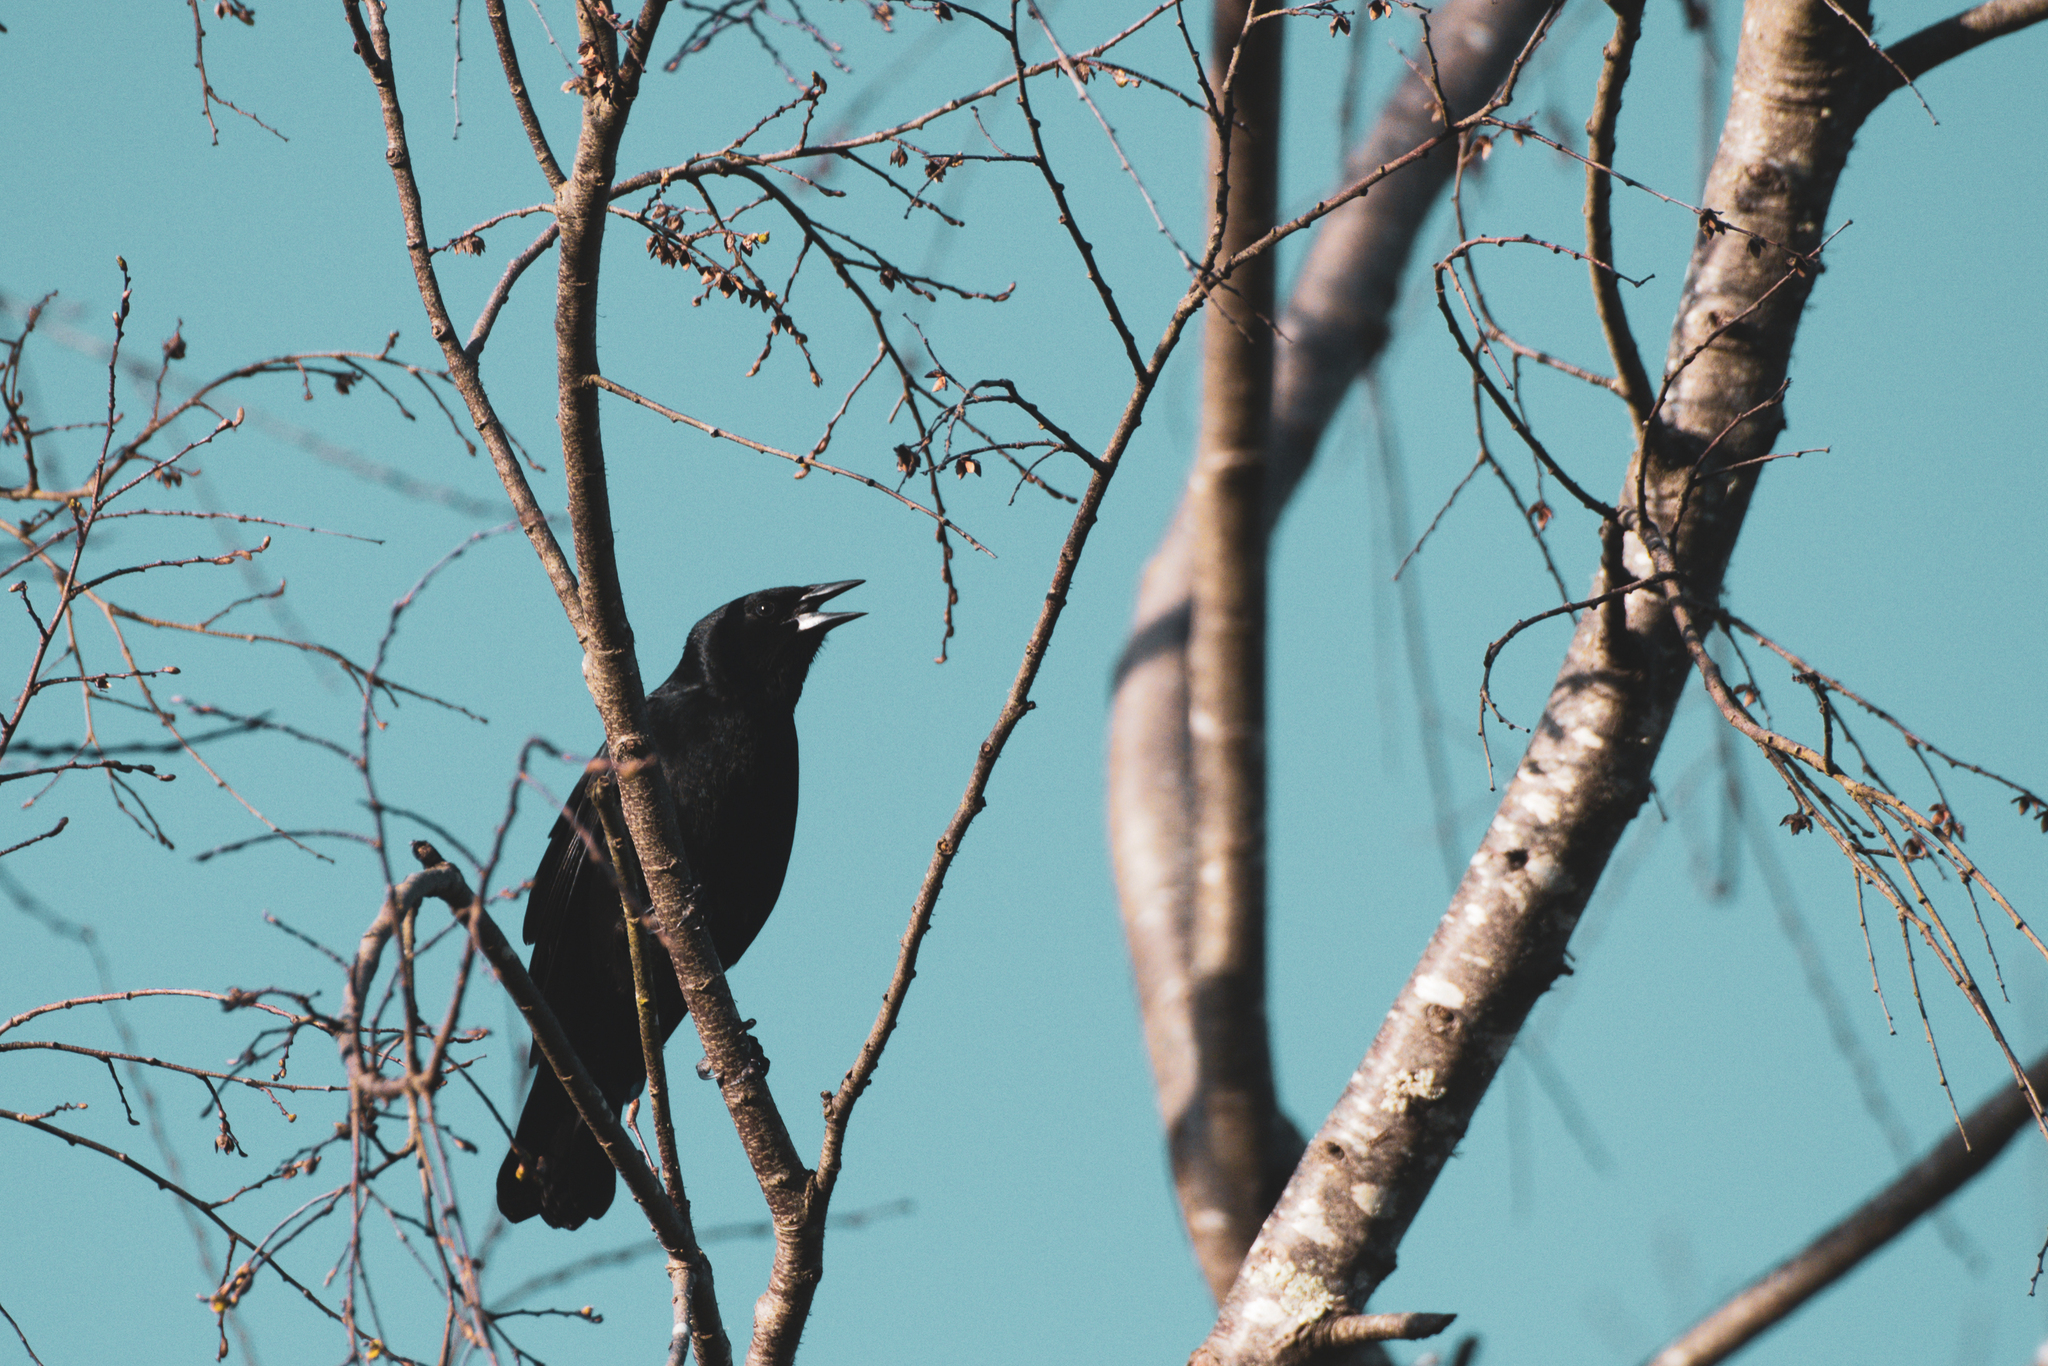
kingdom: Animalia
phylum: Chordata
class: Aves
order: Passeriformes
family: Icteridae
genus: Curaeus
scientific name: Curaeus curaeus
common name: Austral blackbird
